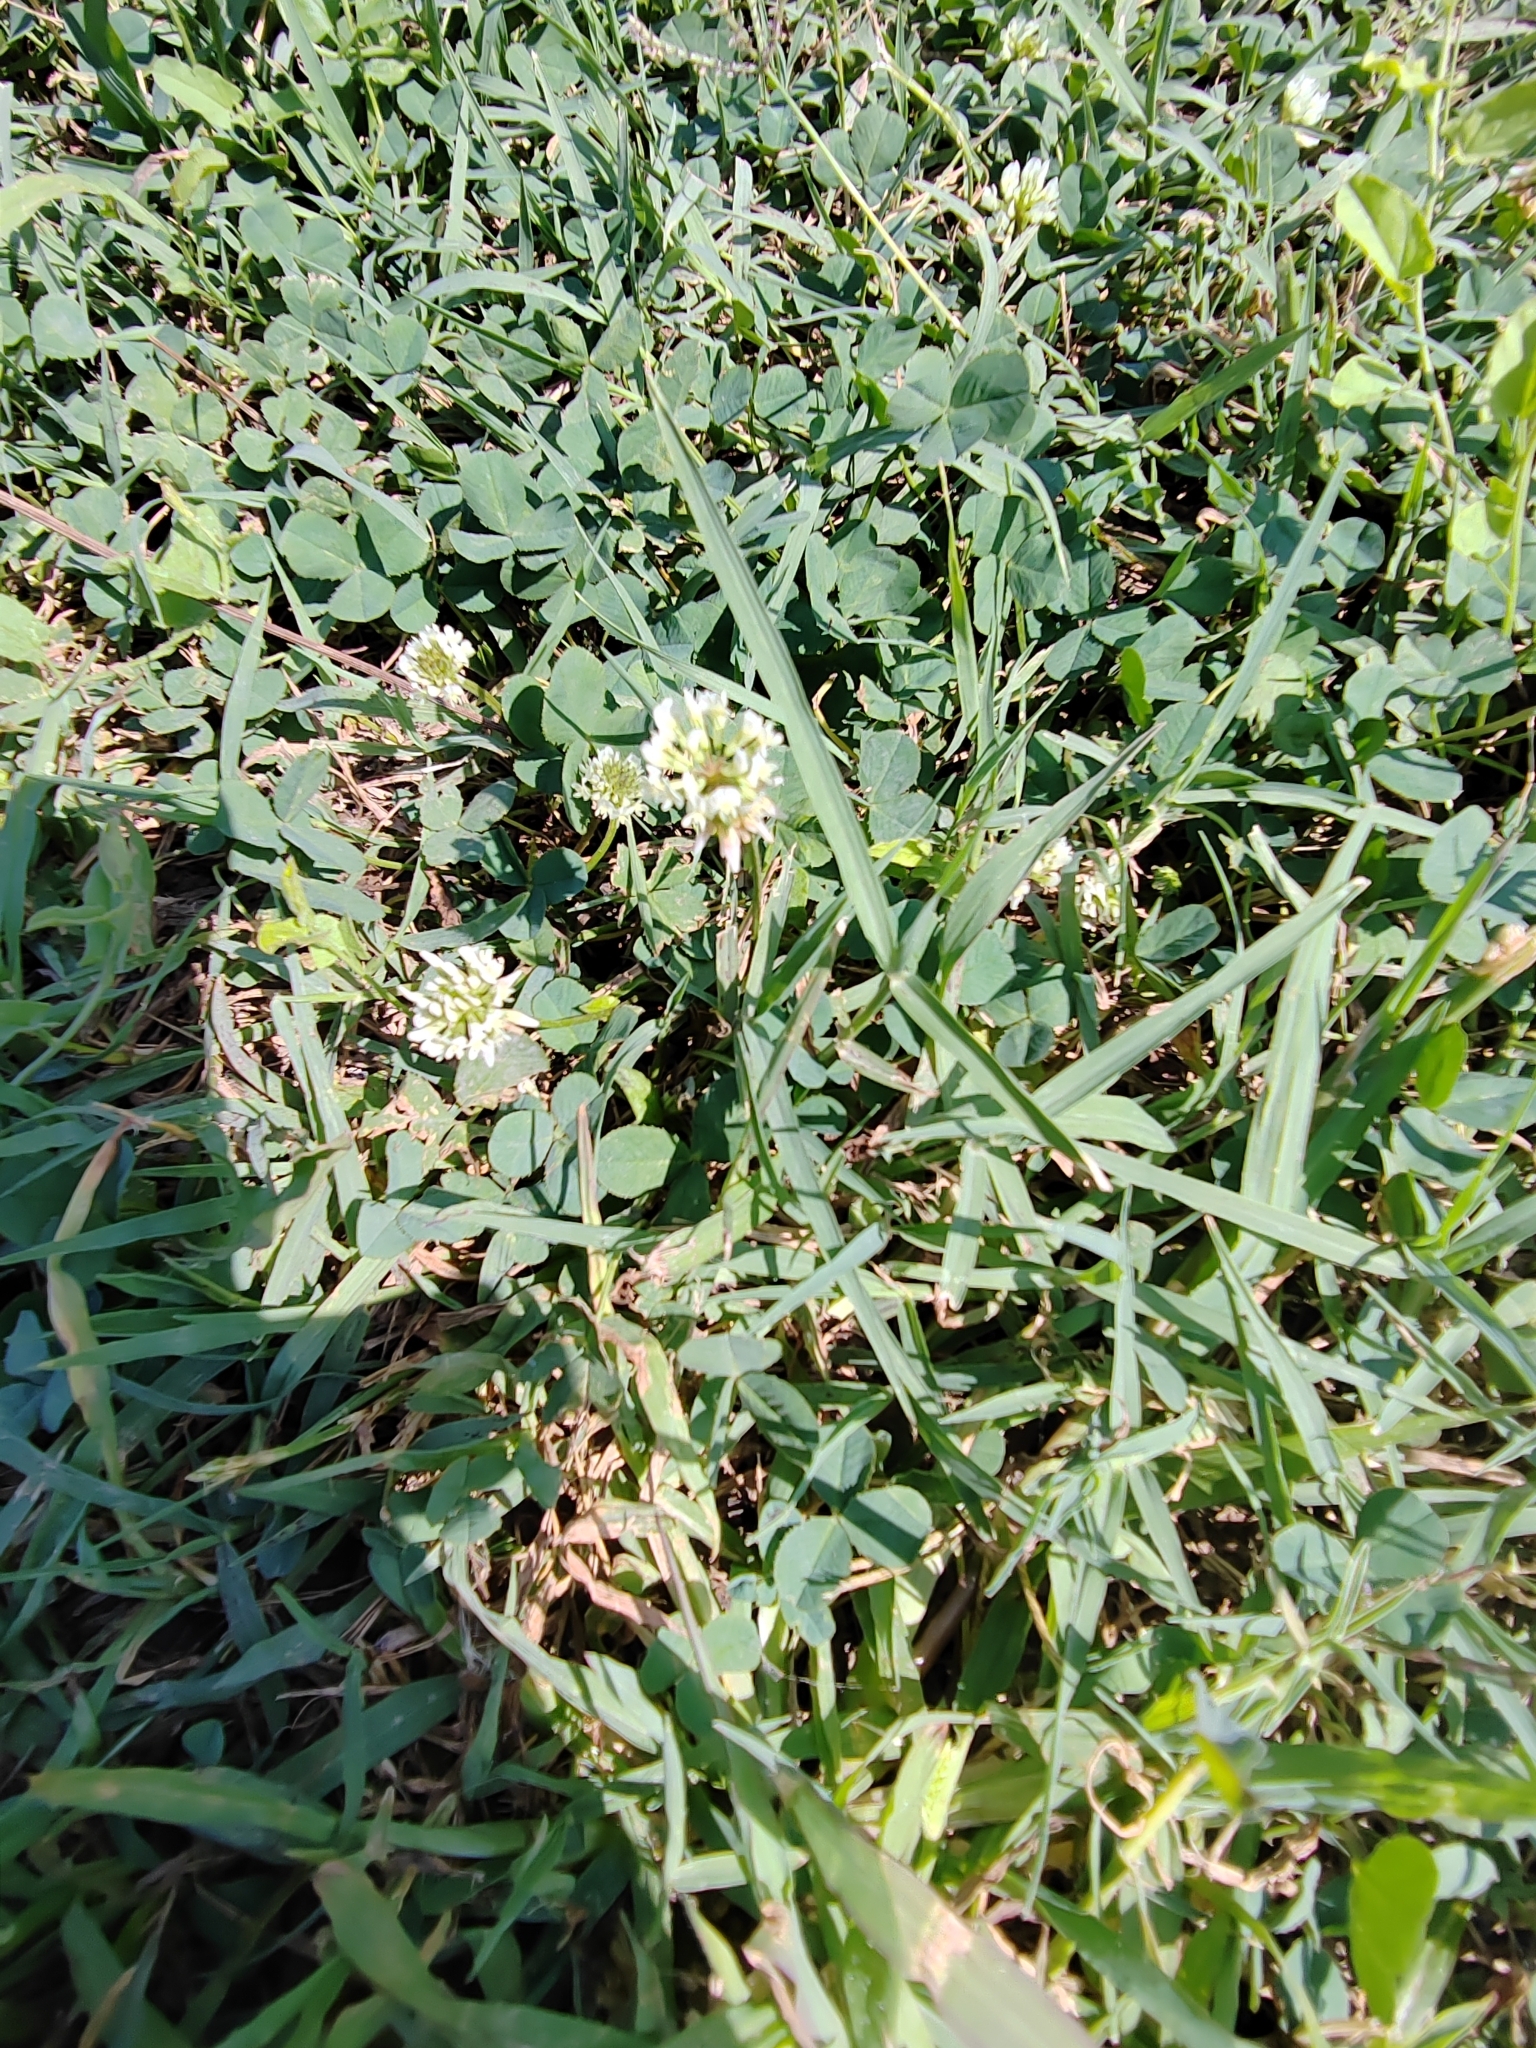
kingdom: Plantae
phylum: Tracheophyta
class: Magnoliopsida
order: Fabales
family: Fabaceae
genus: Trifolium
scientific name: Trifolium repens
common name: White clover
